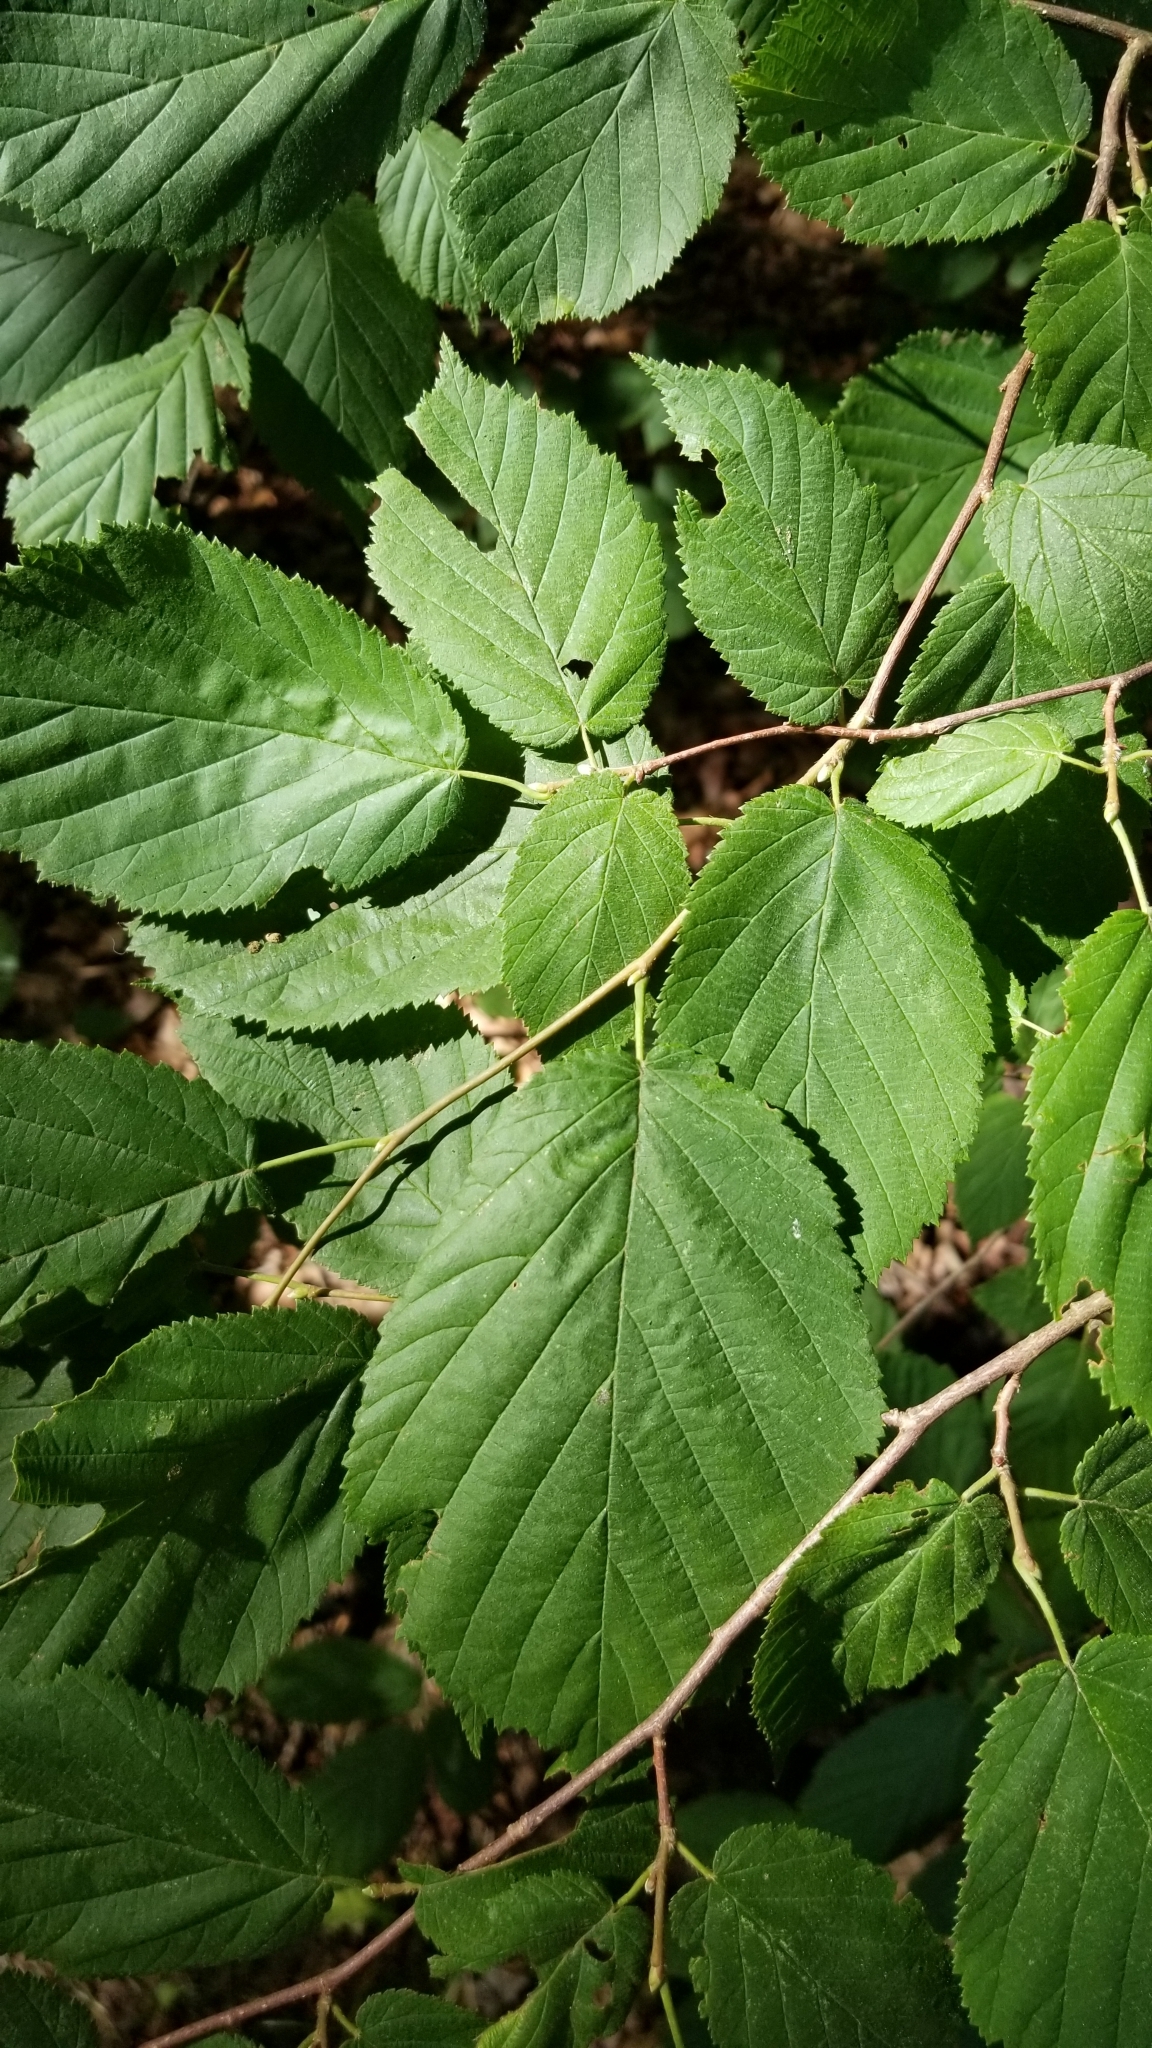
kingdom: Plantae
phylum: Tracheophyta
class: Magnoliopsida
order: Fagales
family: Betulaceae
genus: Corylus
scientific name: Corylus cornuta
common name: Beaked hazel
